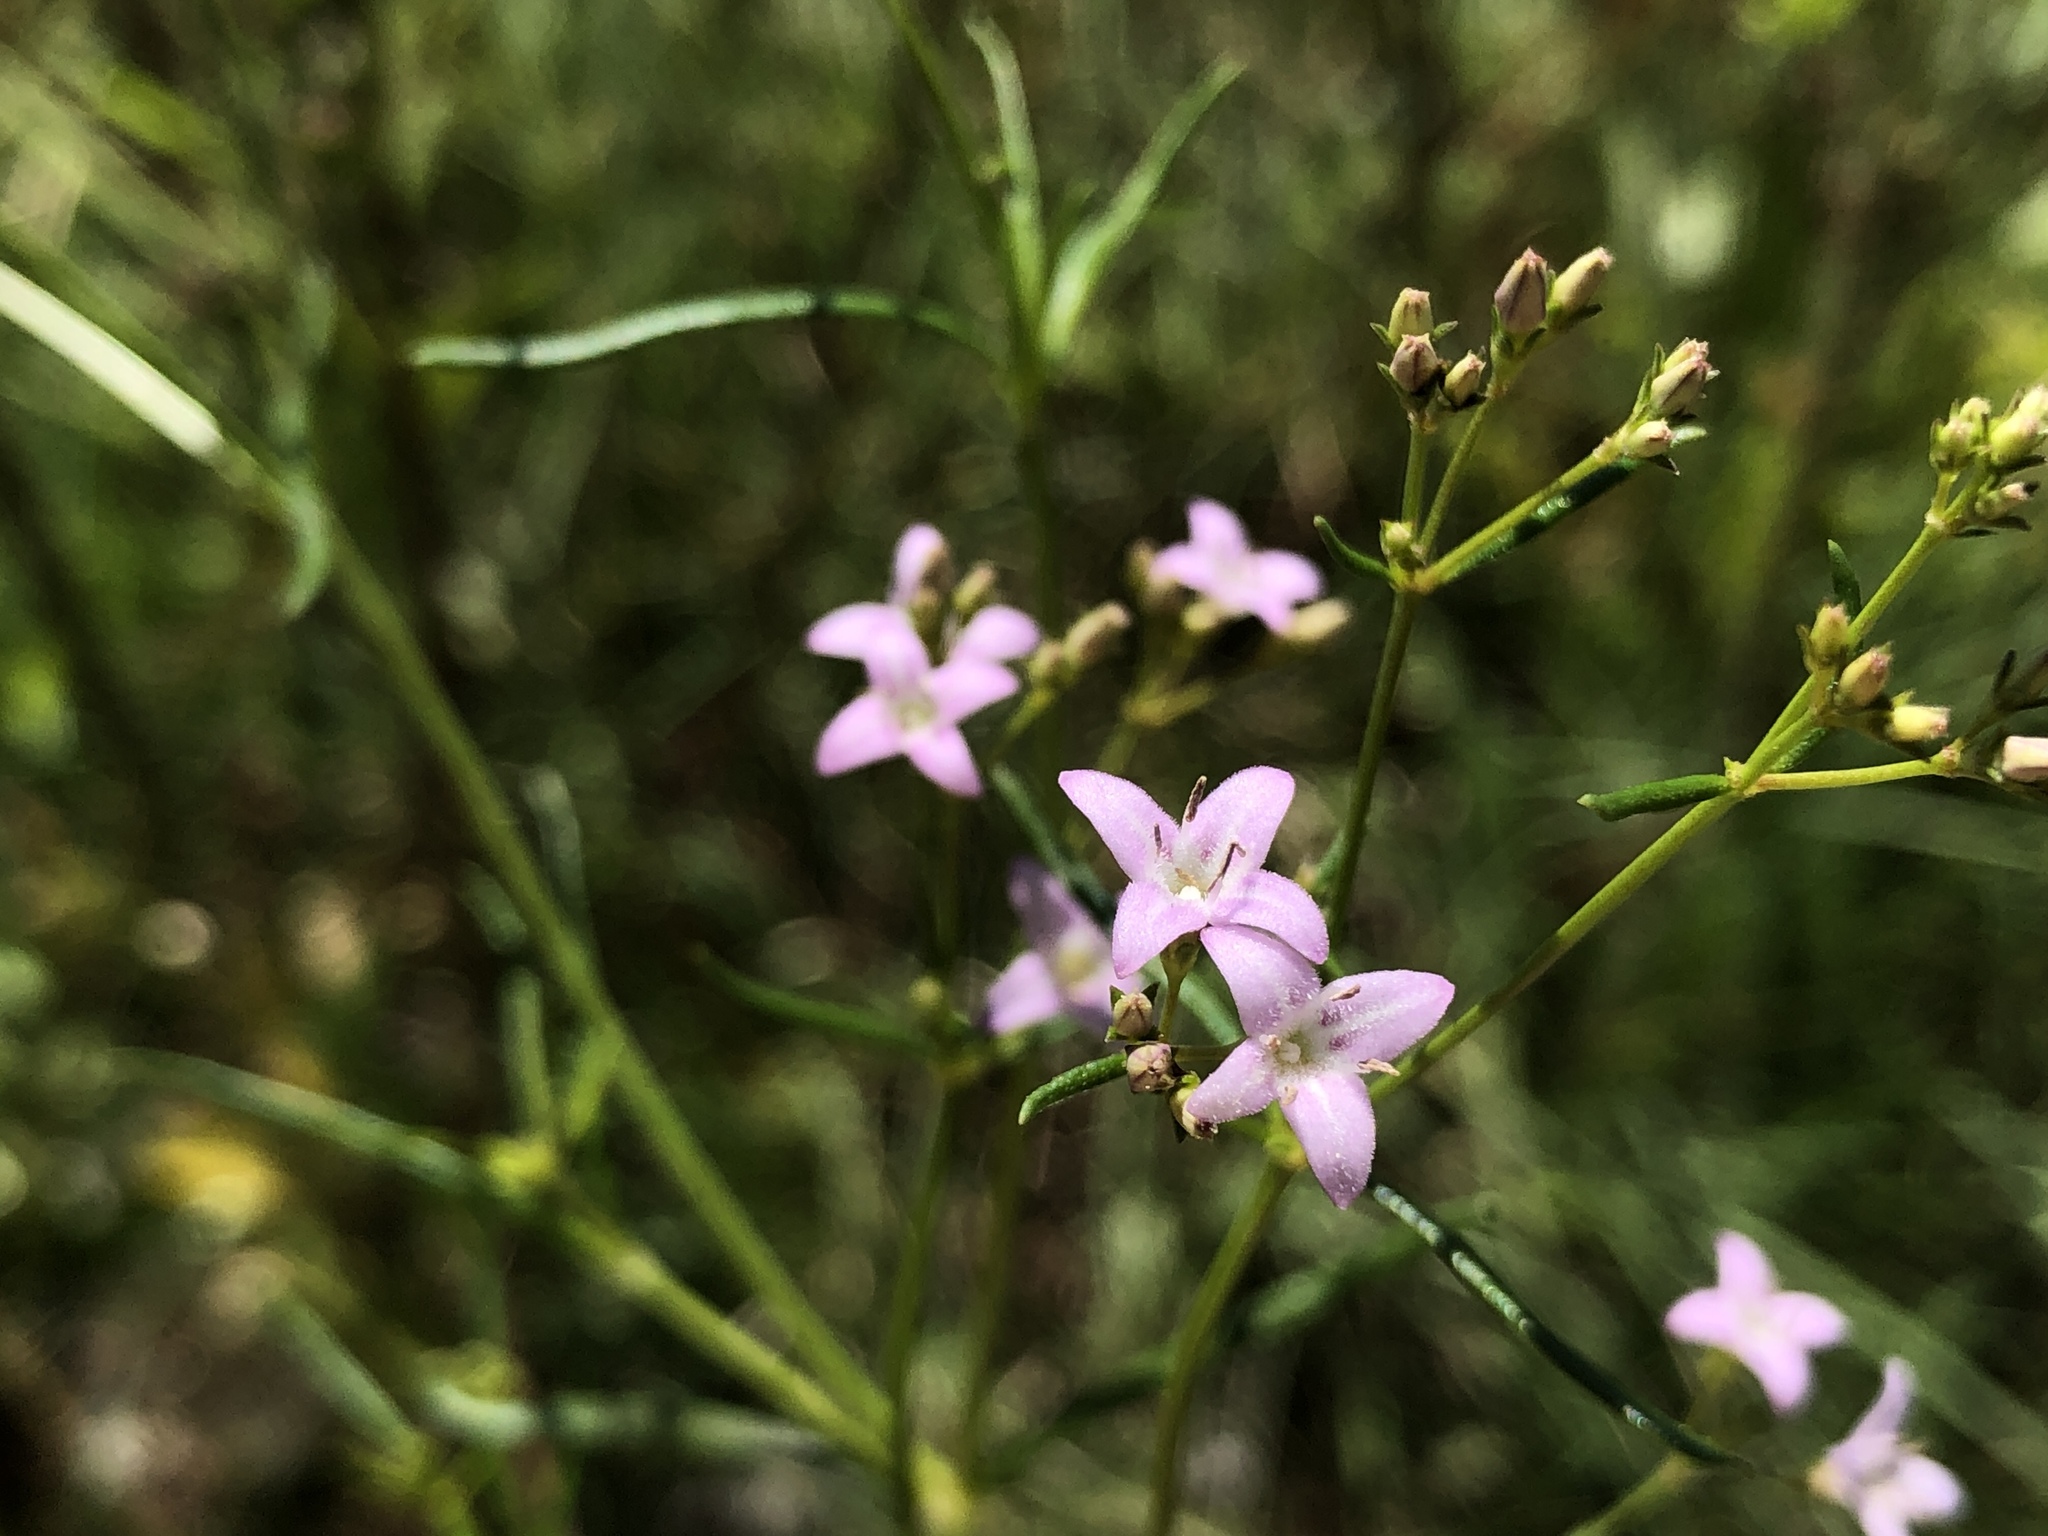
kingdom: Plantae
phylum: Tracheophyta
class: Magnoliopsida
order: Gentianales
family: Rubiaceae
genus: Stenaria
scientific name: Stenaria nigricans
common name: Diamondflowers
